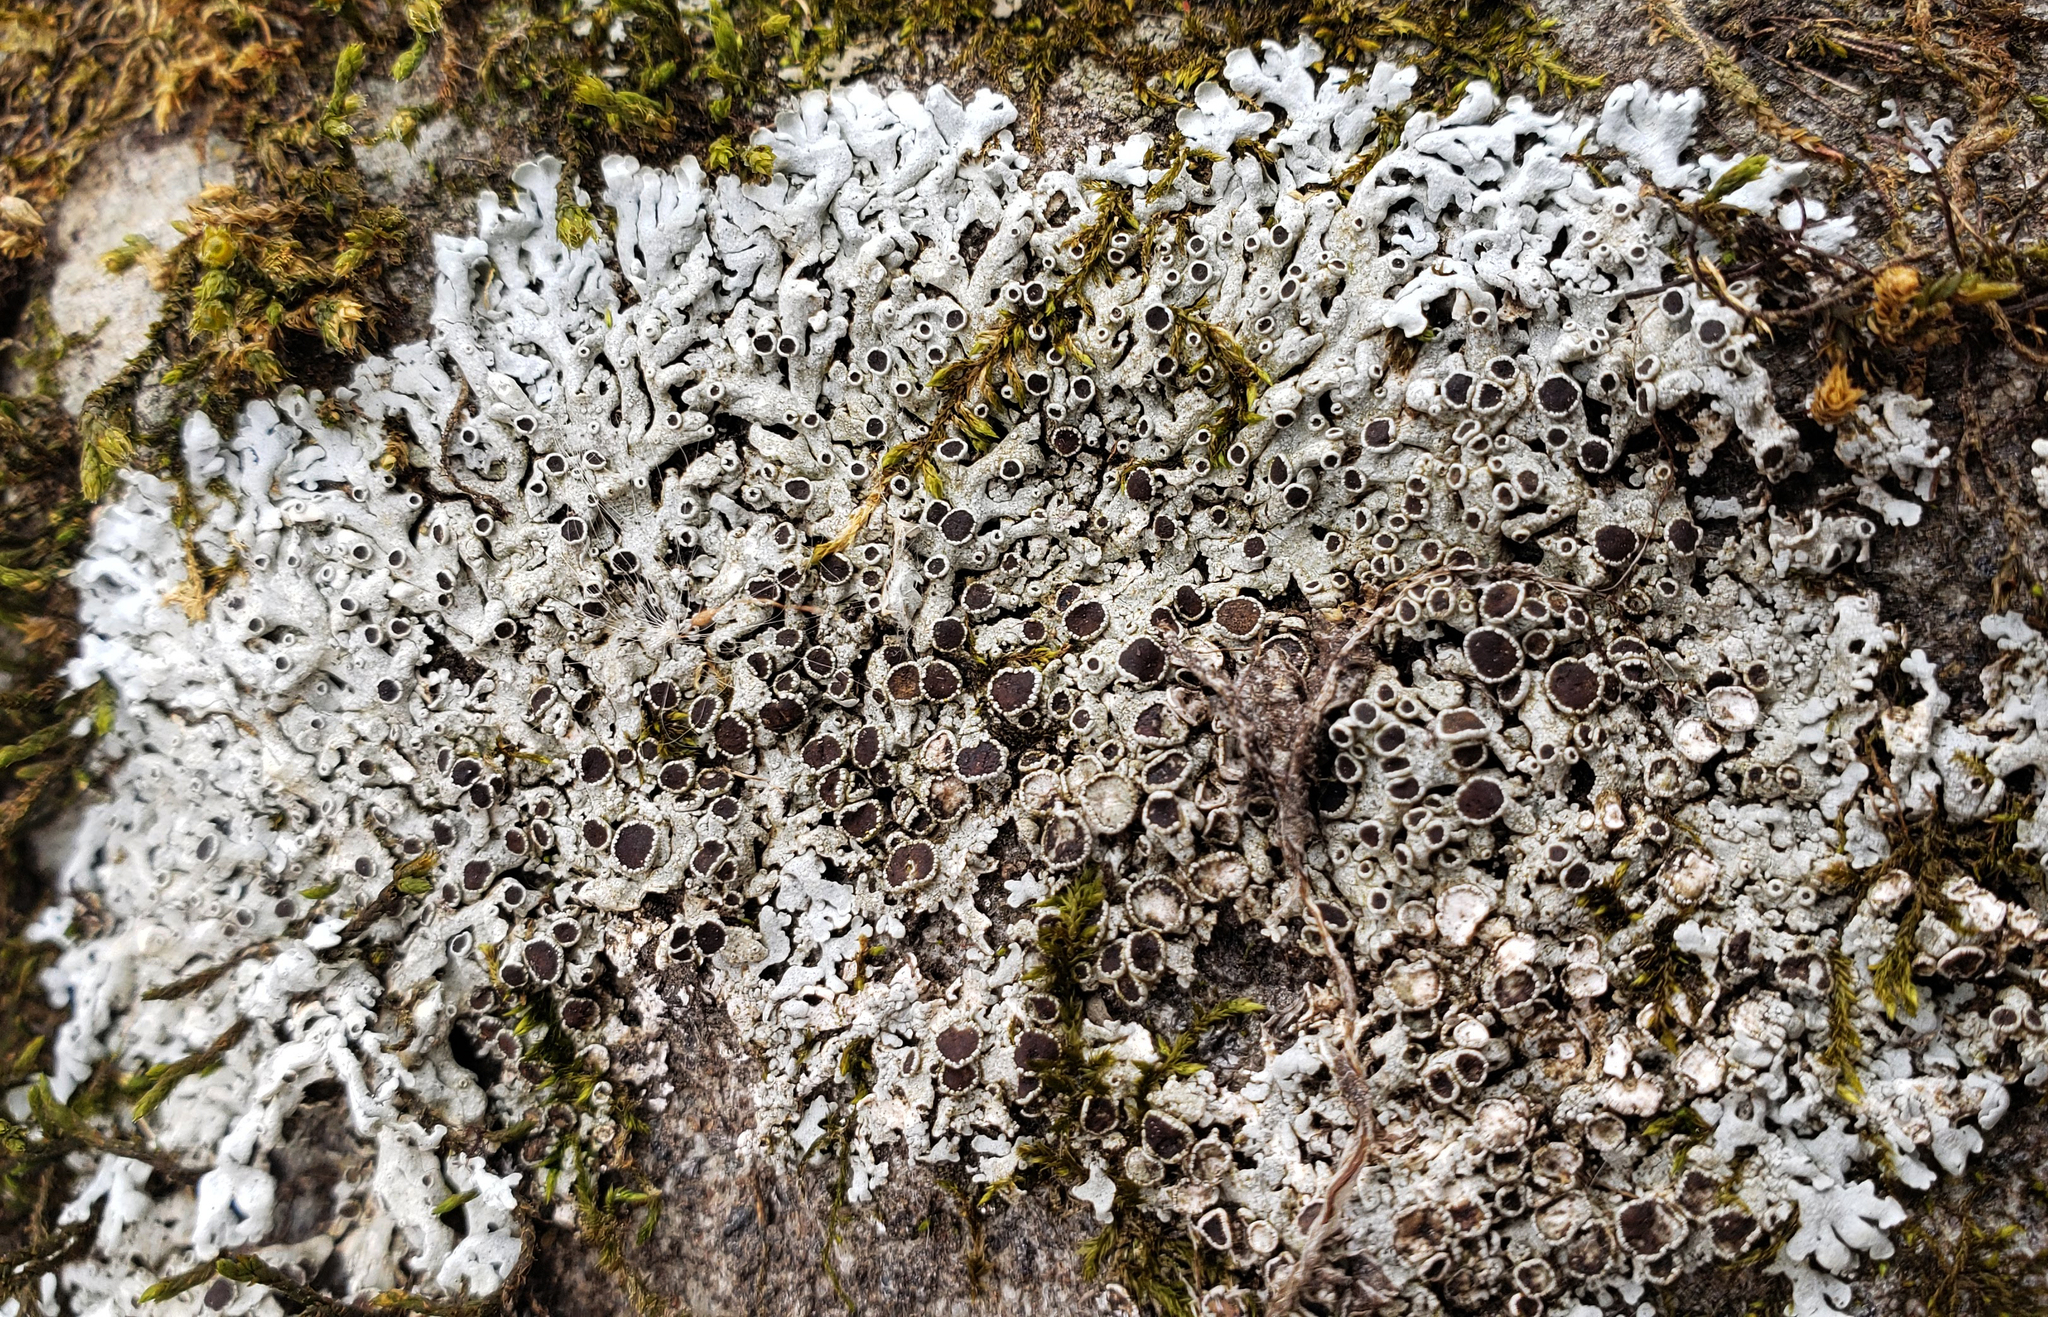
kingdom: Fungi
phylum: Ascomycota
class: Lecanoromycetes
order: Caliciales
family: Physciaceae
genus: Physcia
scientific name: Physcia phaea
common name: Black-eyed rosette lichen
